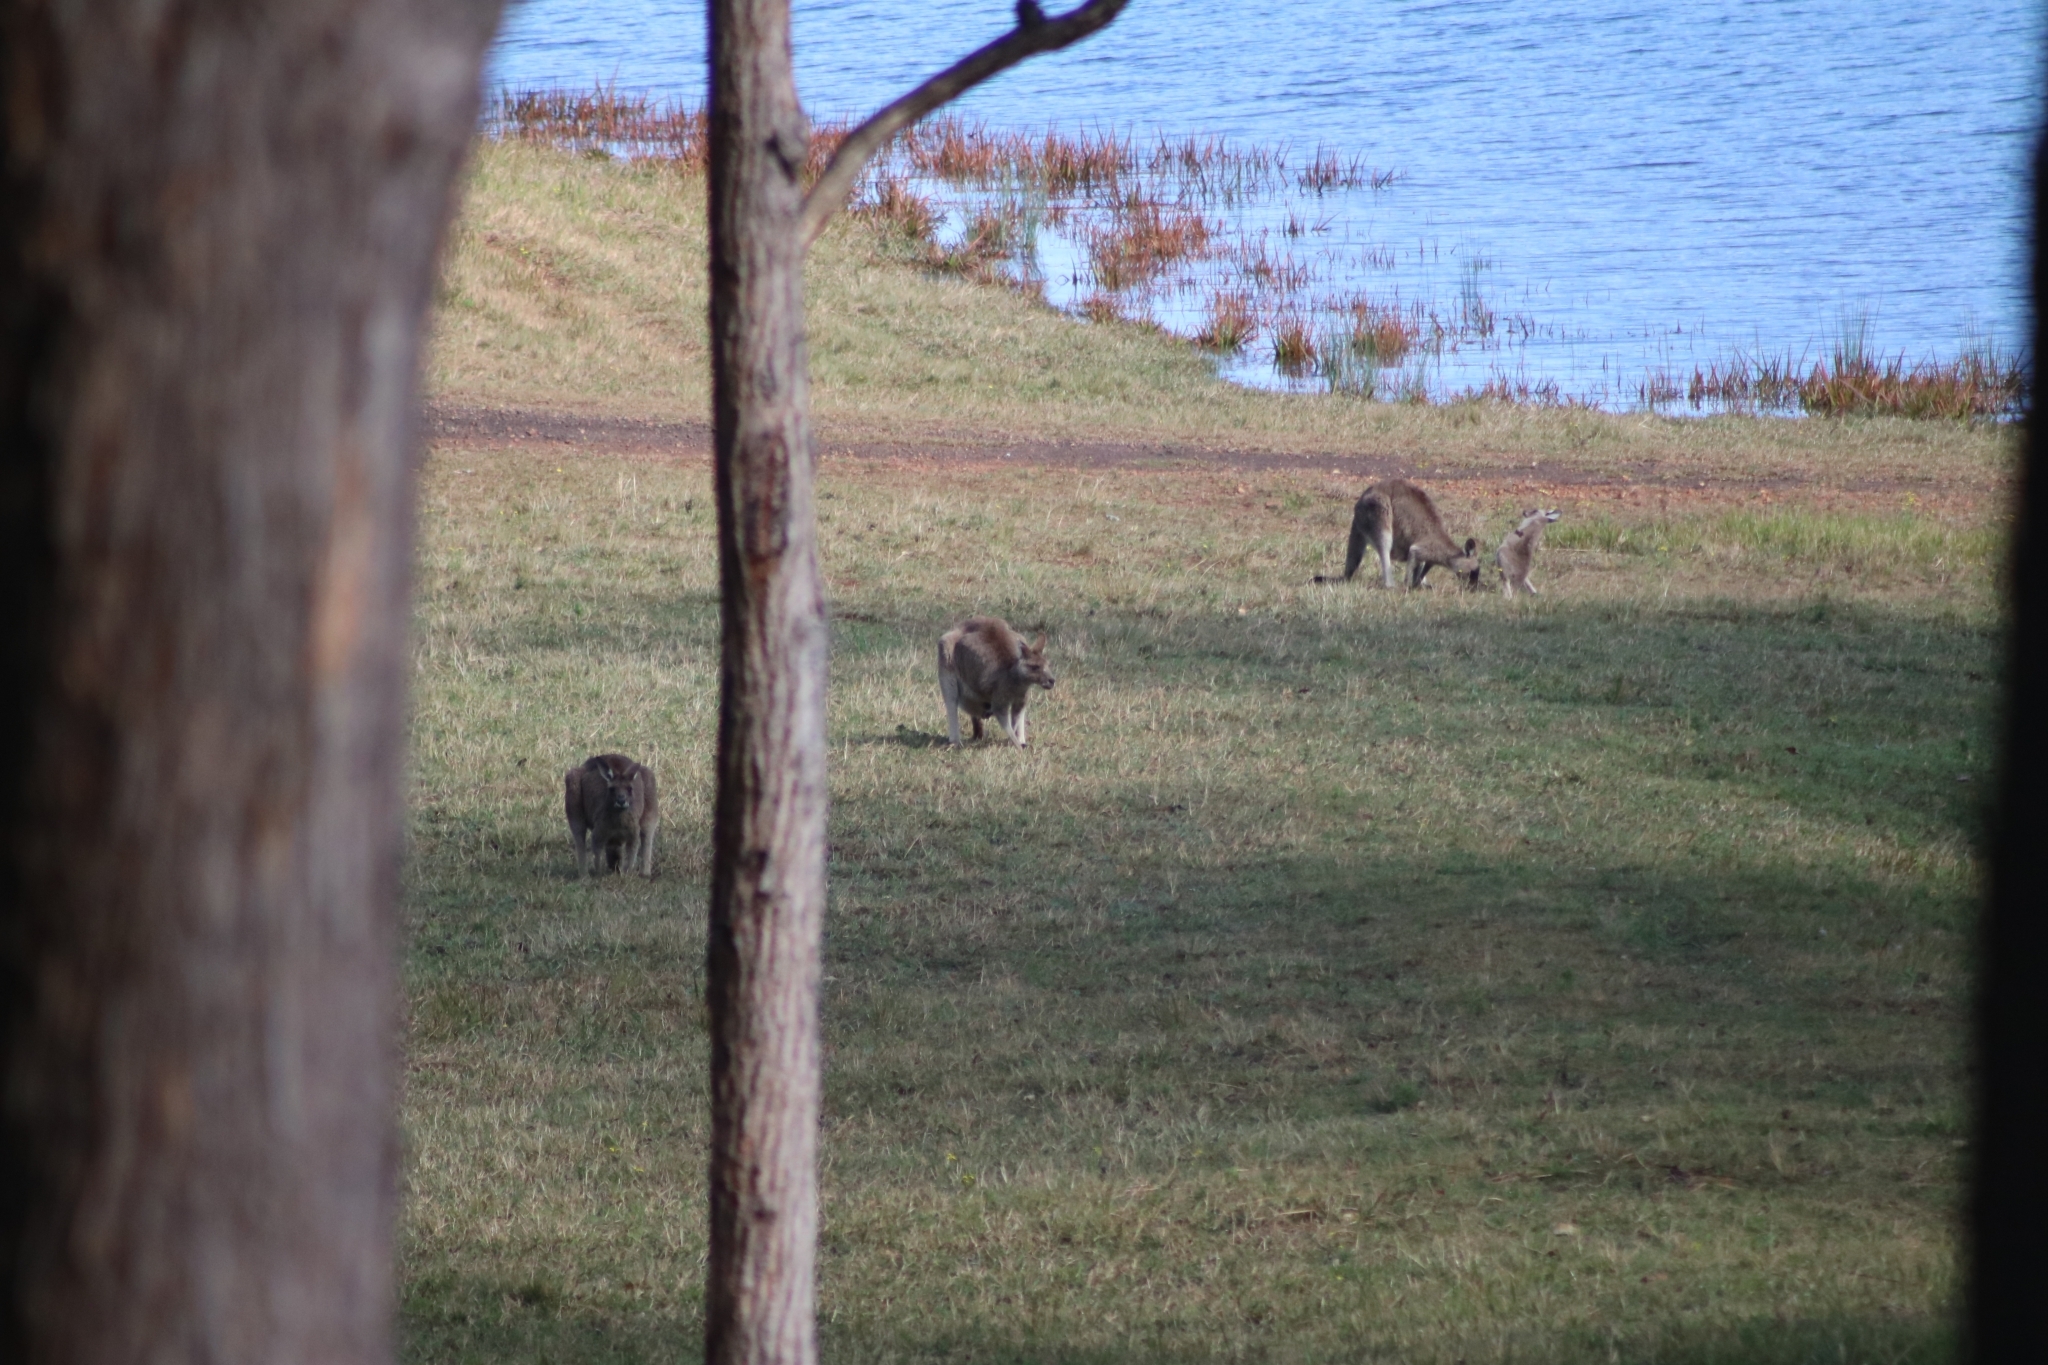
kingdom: Animalia
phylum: Chordata
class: Mammalia
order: Diprotodontia
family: Macropodidae
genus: Macropus
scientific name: Macropus giganteus
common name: Eastern grey kangaroo
